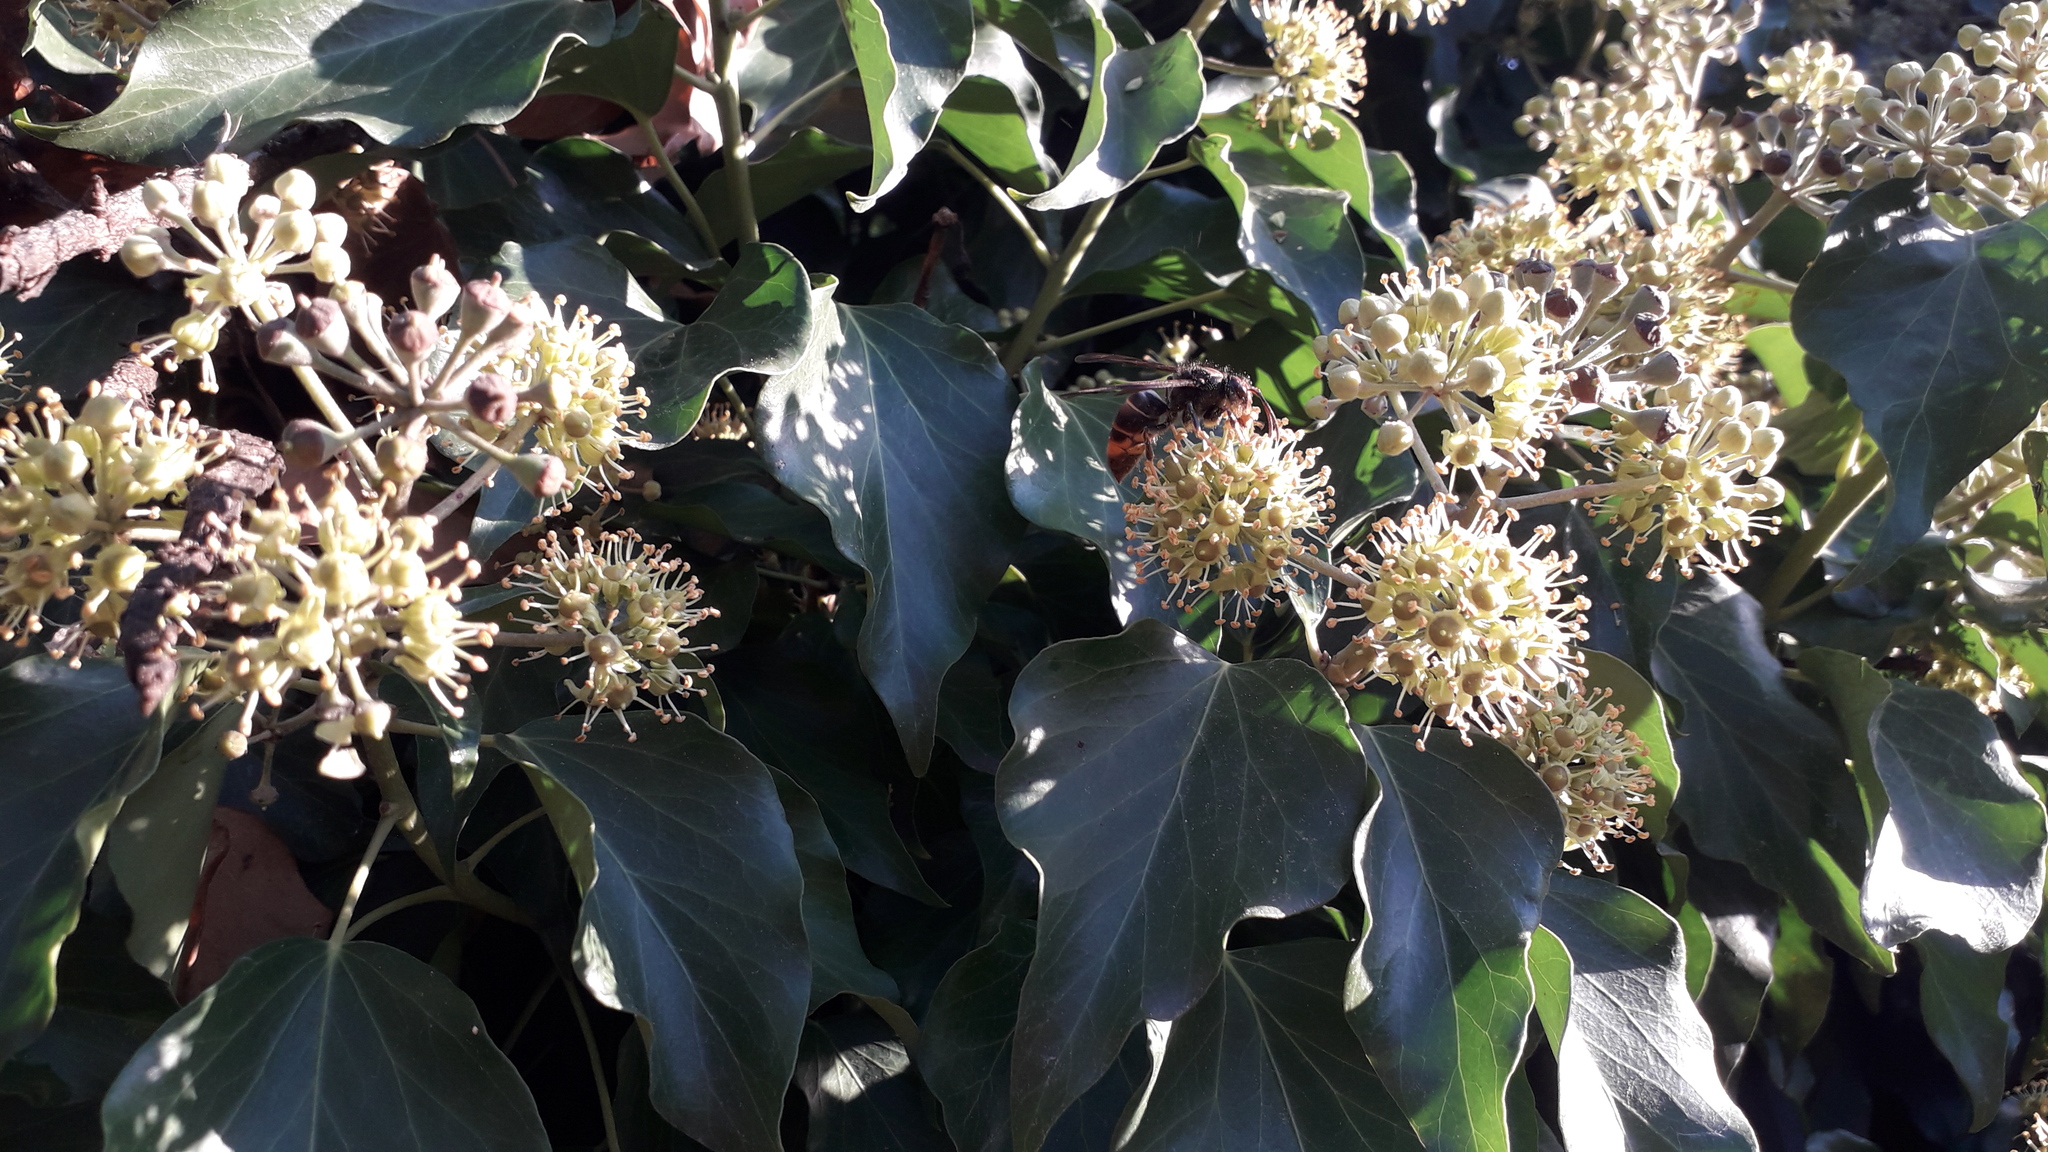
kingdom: Animalia
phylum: Arthropoda
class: Insecta
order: Hymenoptera
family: Vespidae
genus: Vespa
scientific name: Vespa velutina
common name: Asian hornet
